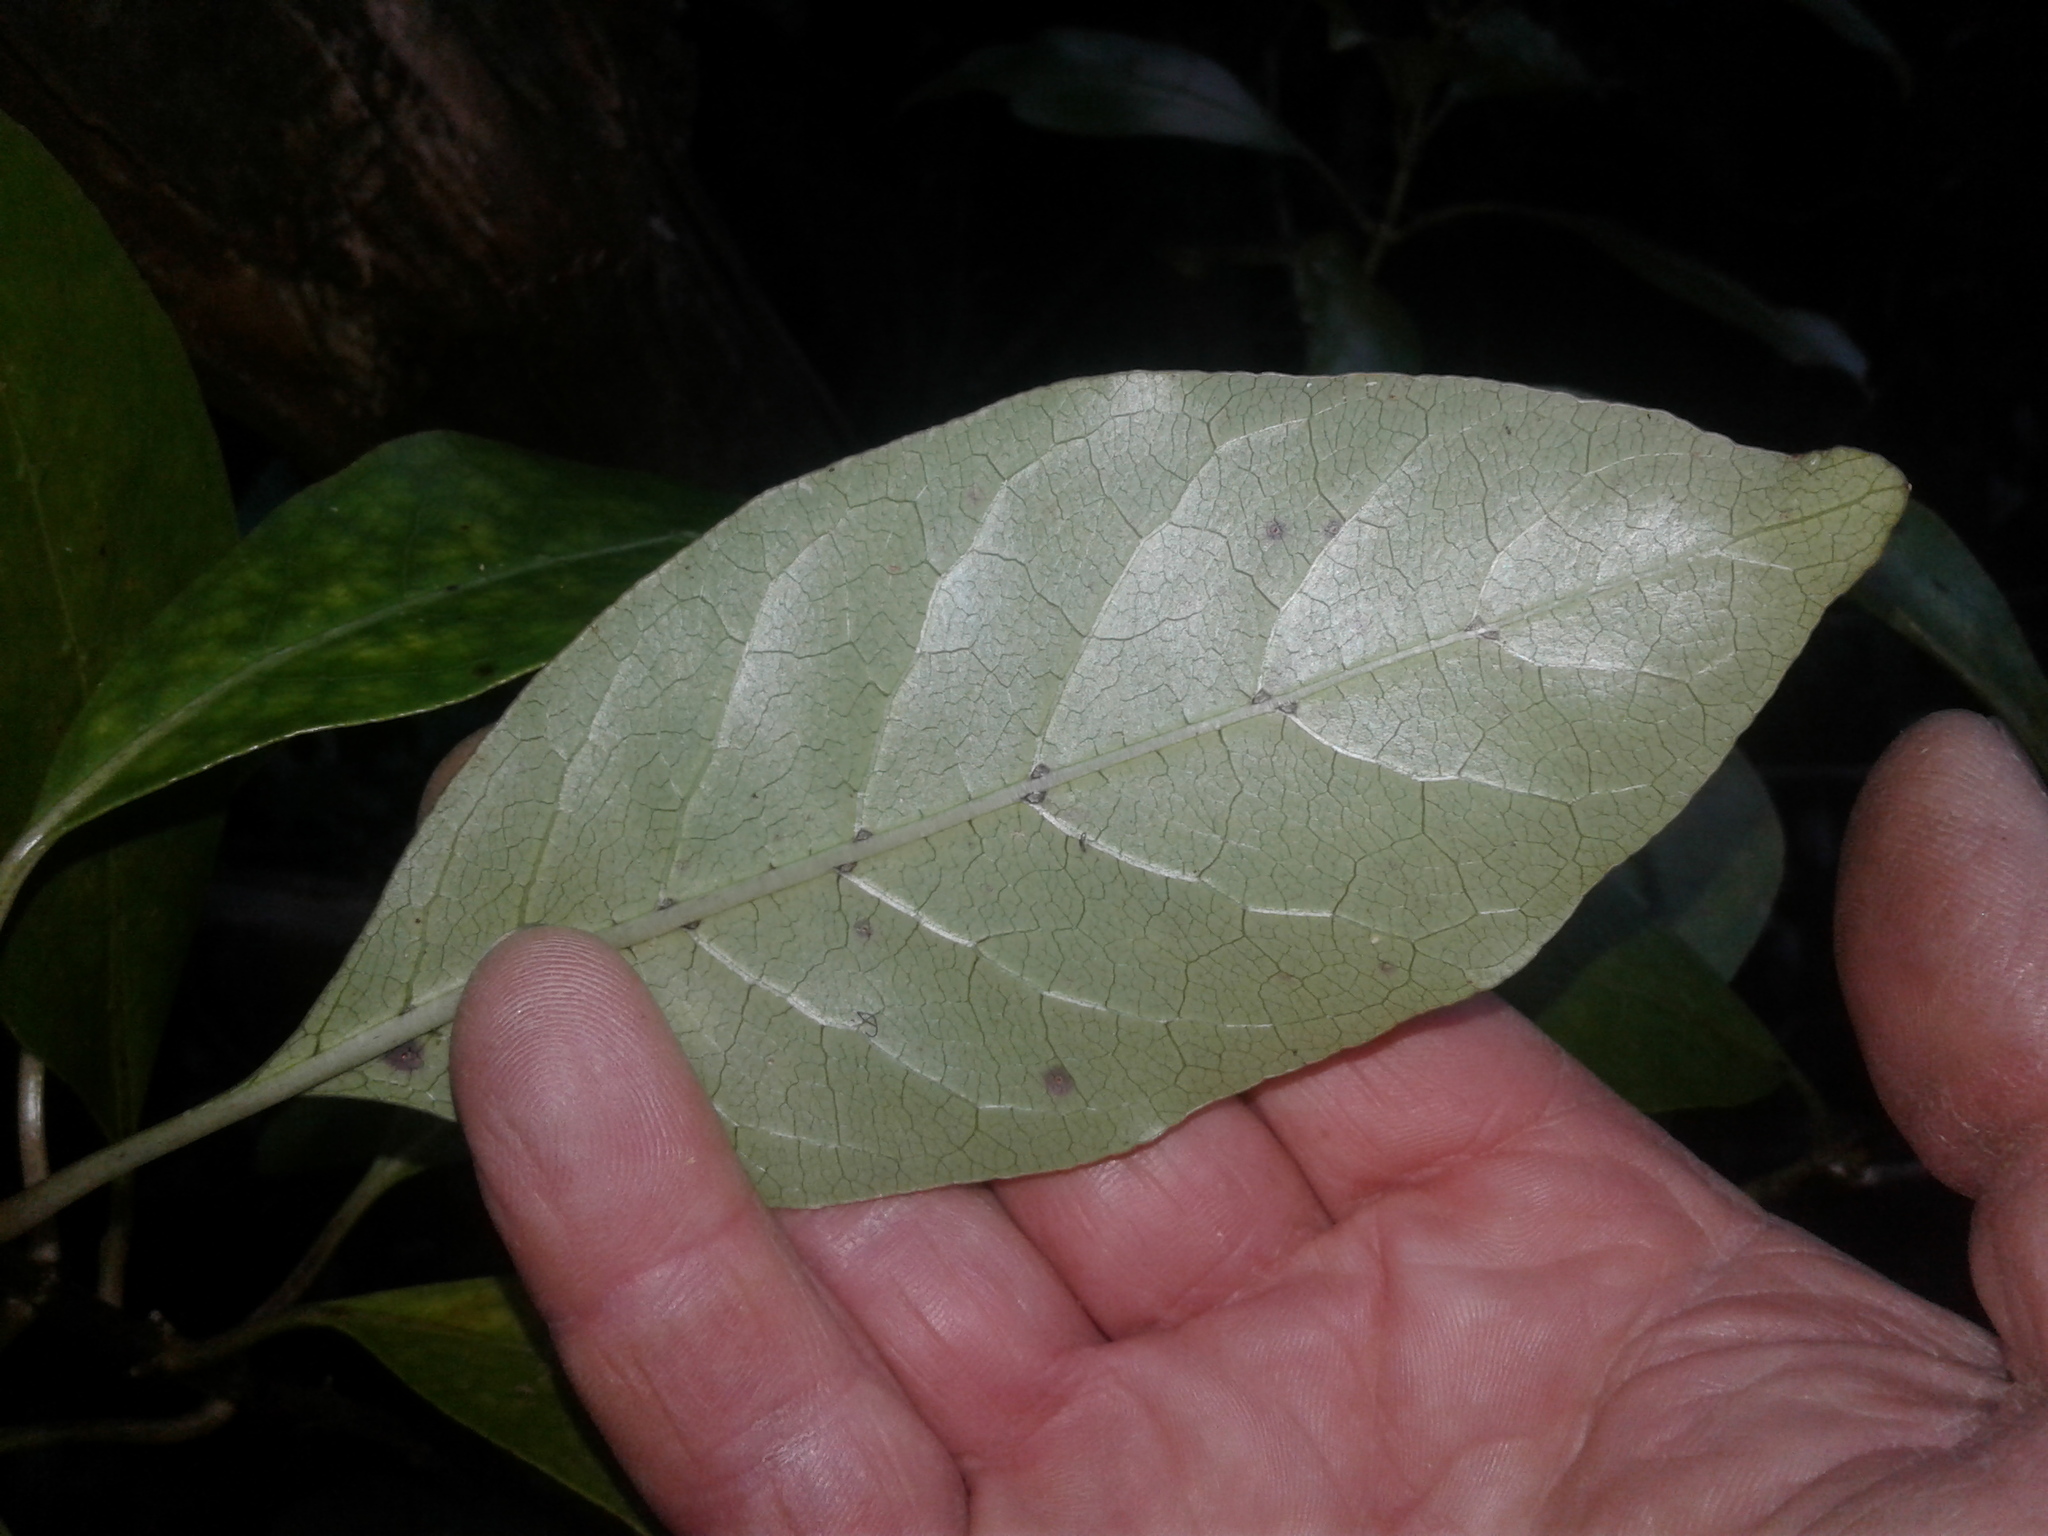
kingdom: Plantae
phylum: Tracheophyta
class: Magnoliopsida
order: Gentianales
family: Rubiaceae
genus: Coprosma
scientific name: Coprosma autumnalis
